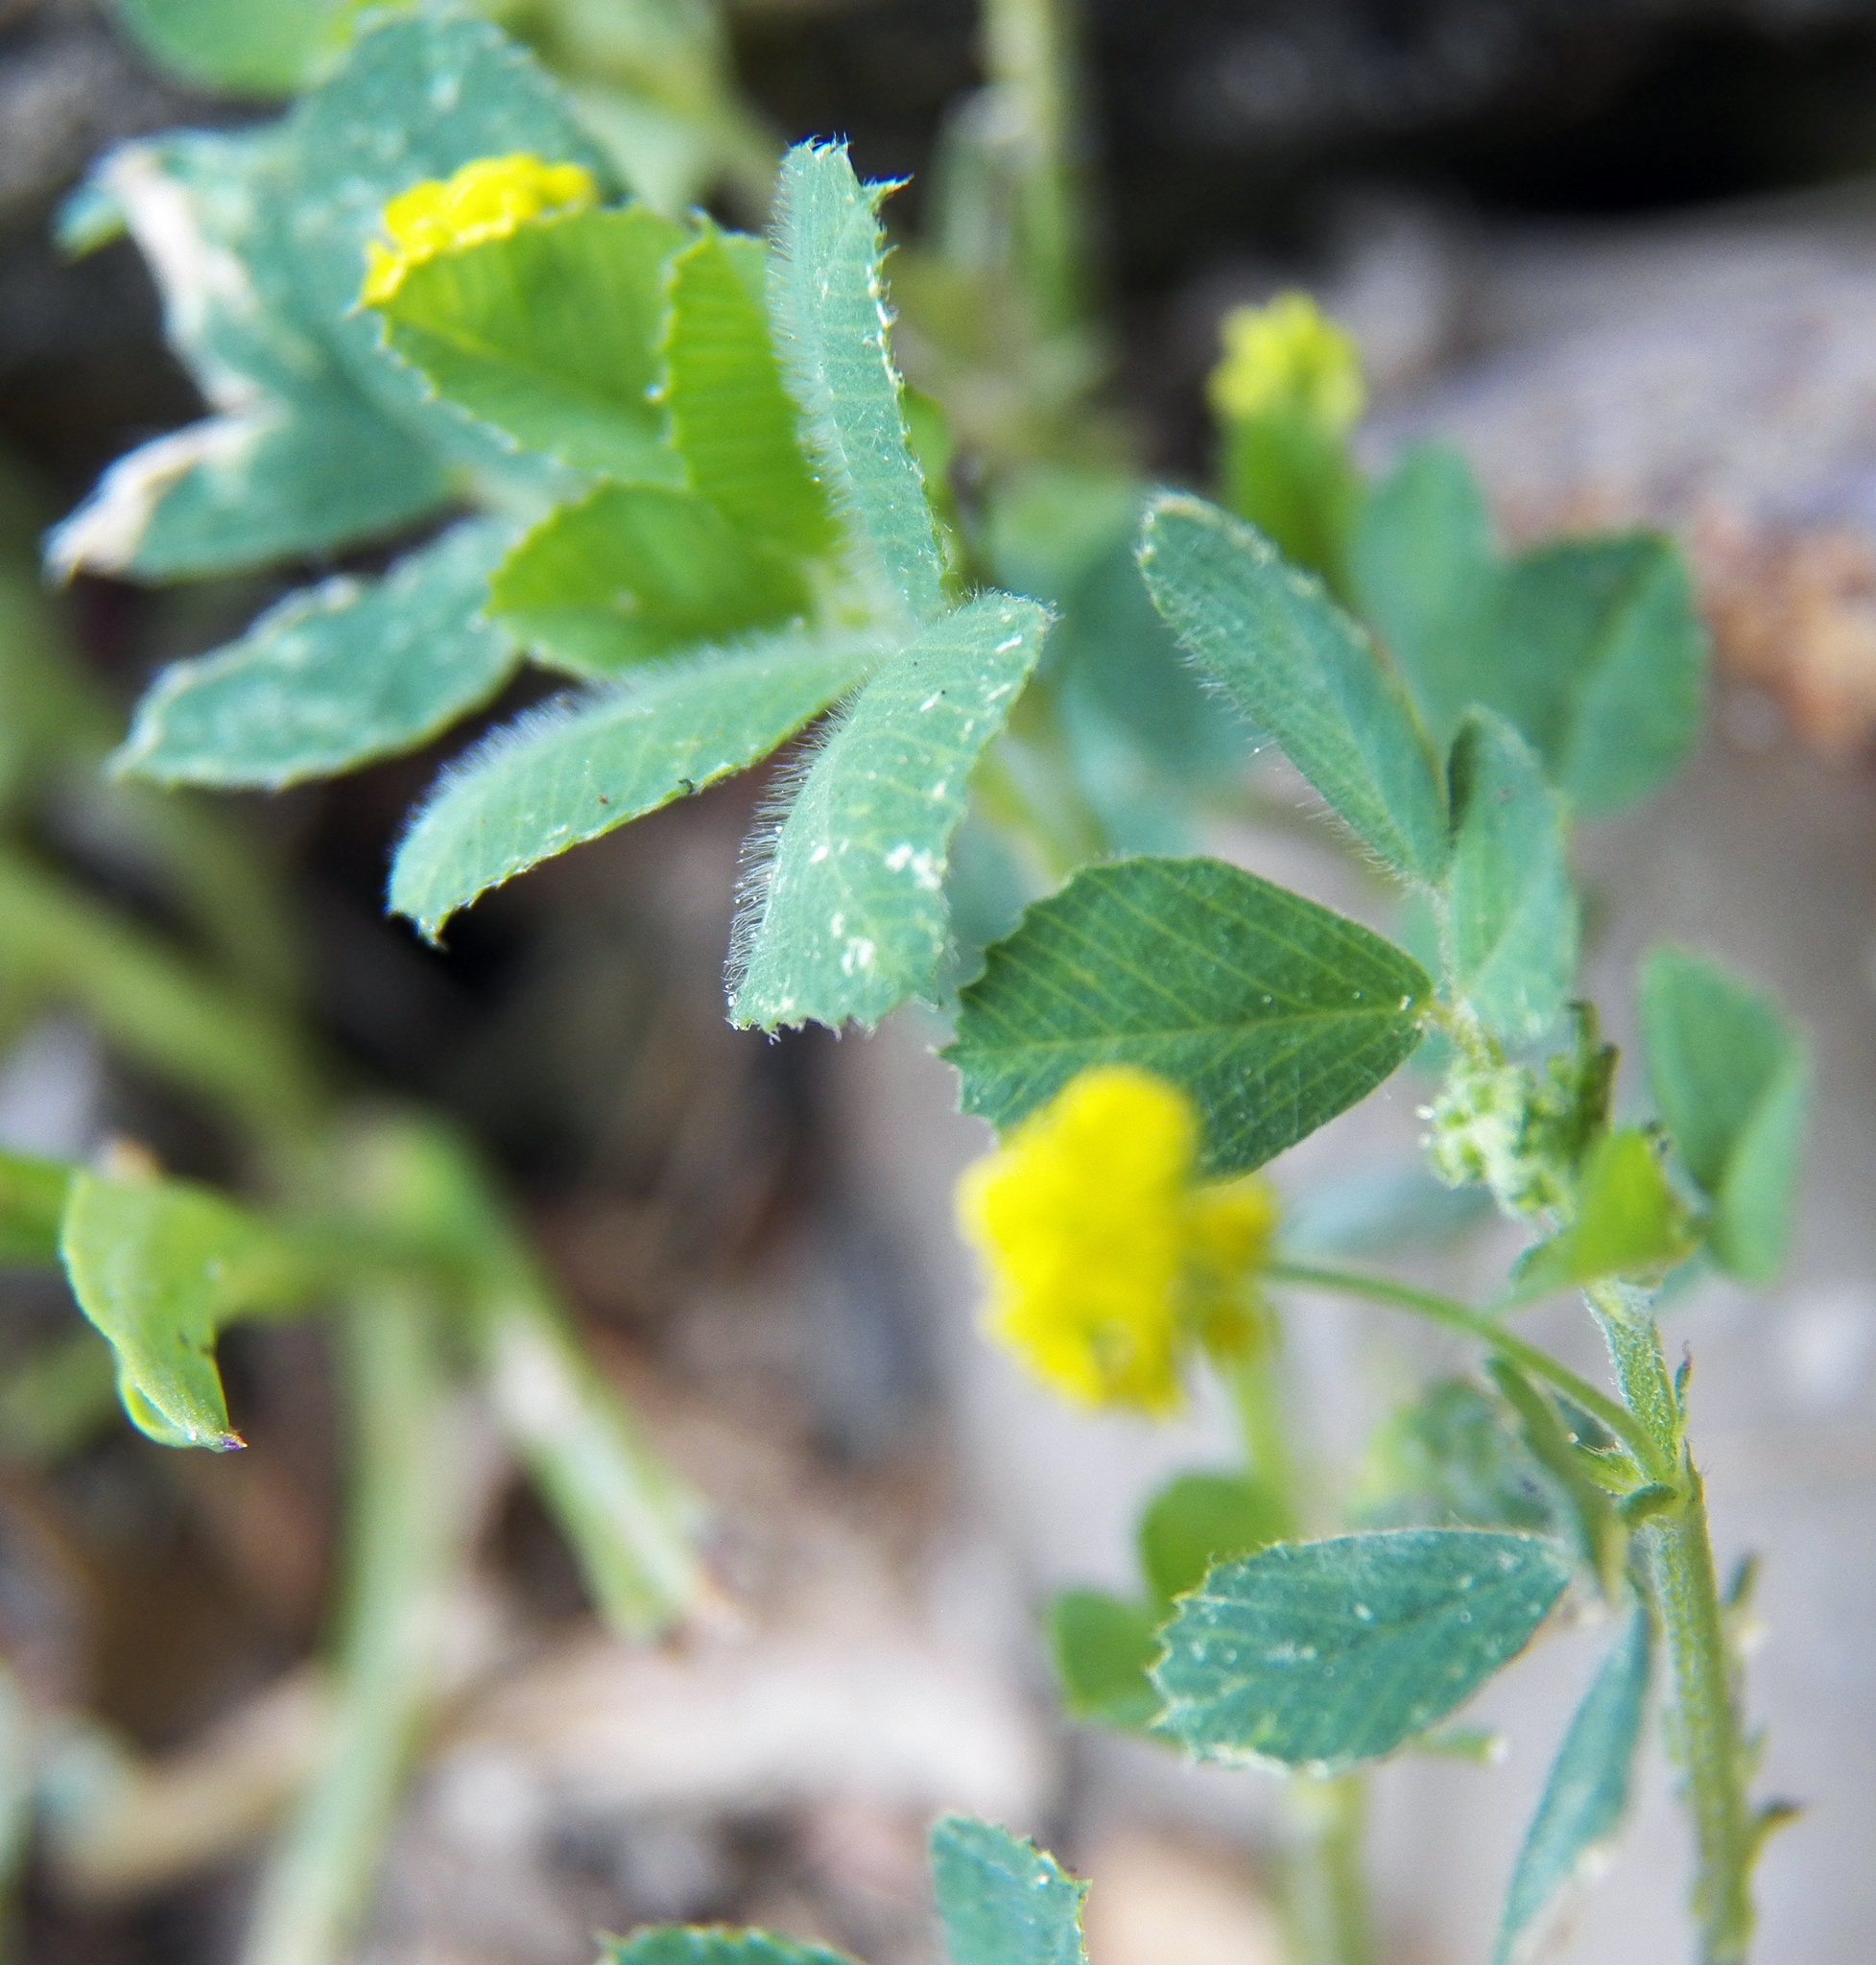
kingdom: Plantae
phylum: Tracheophyta
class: Magnoliopsida
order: Fabales
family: Fabaceae
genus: Medicago
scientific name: Medicago lupulina
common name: Black medick
